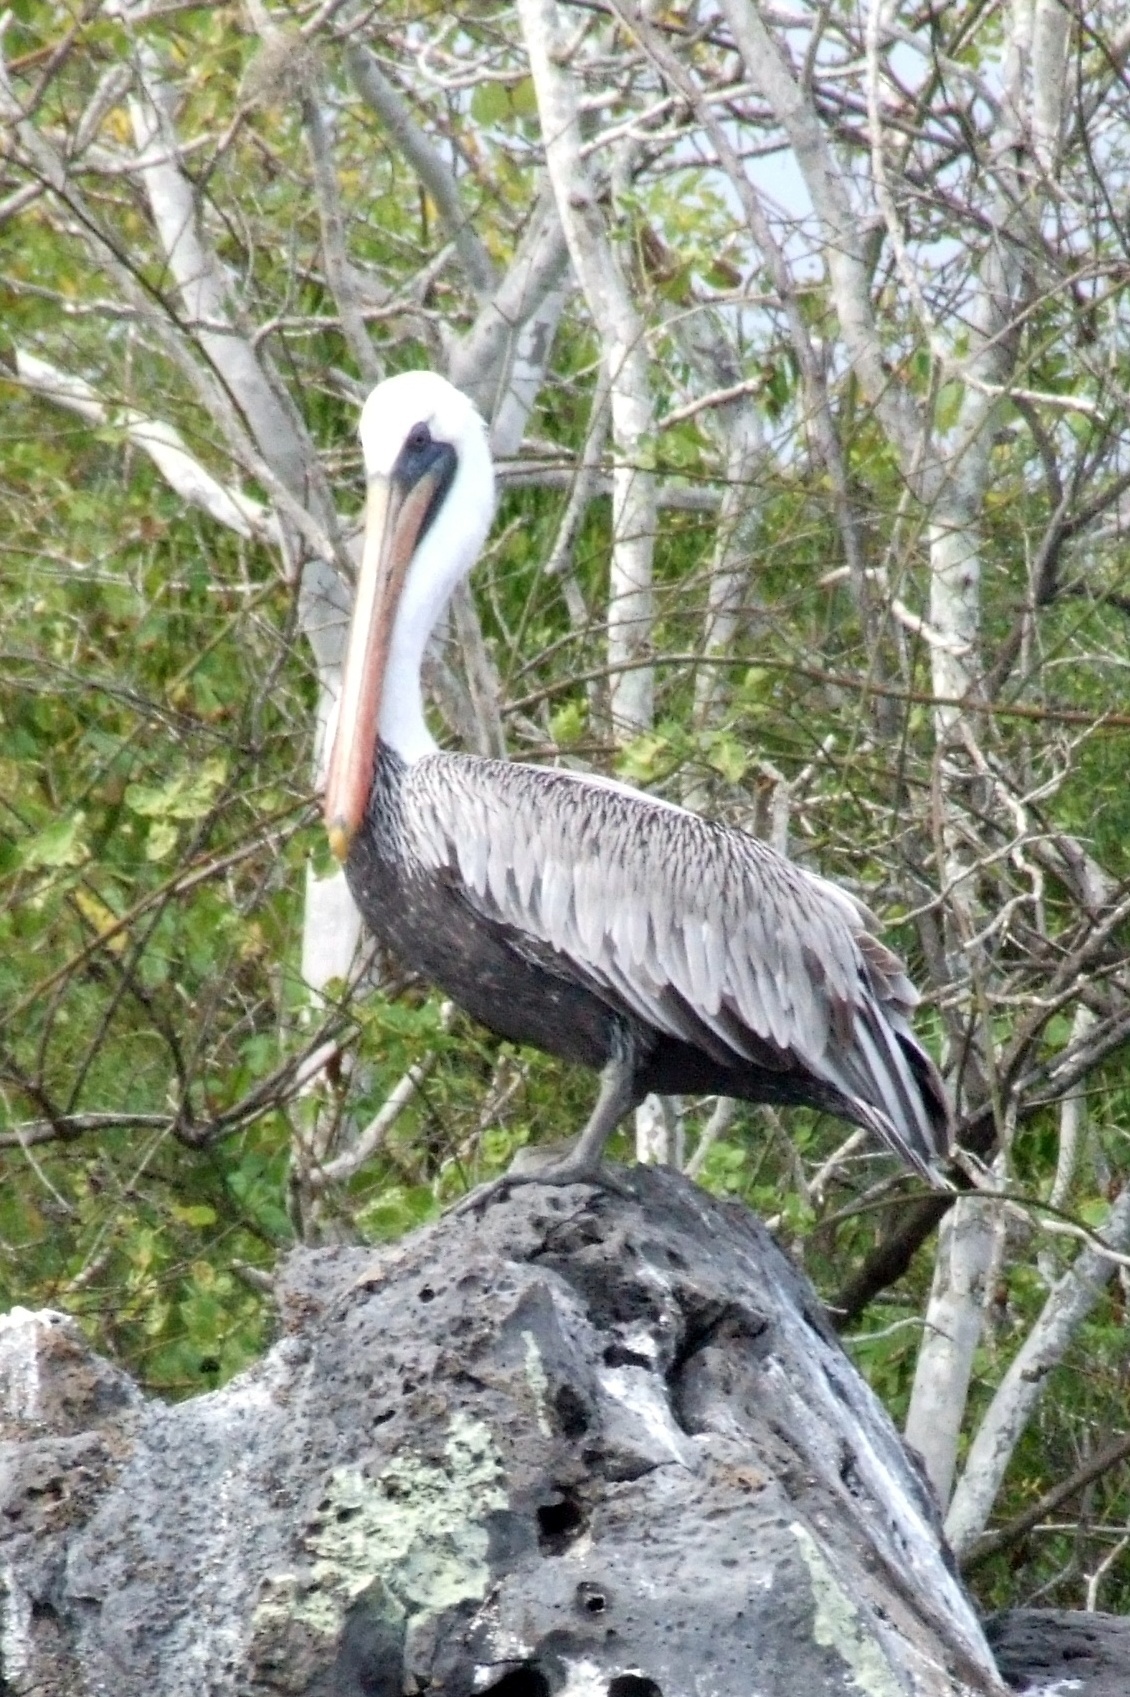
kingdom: Animalia
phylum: Chordata
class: Aves
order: Pelecaniformes
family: Pelecanidae
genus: Pelecanus
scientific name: Pelecanus occidentalis
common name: Brown pelican
